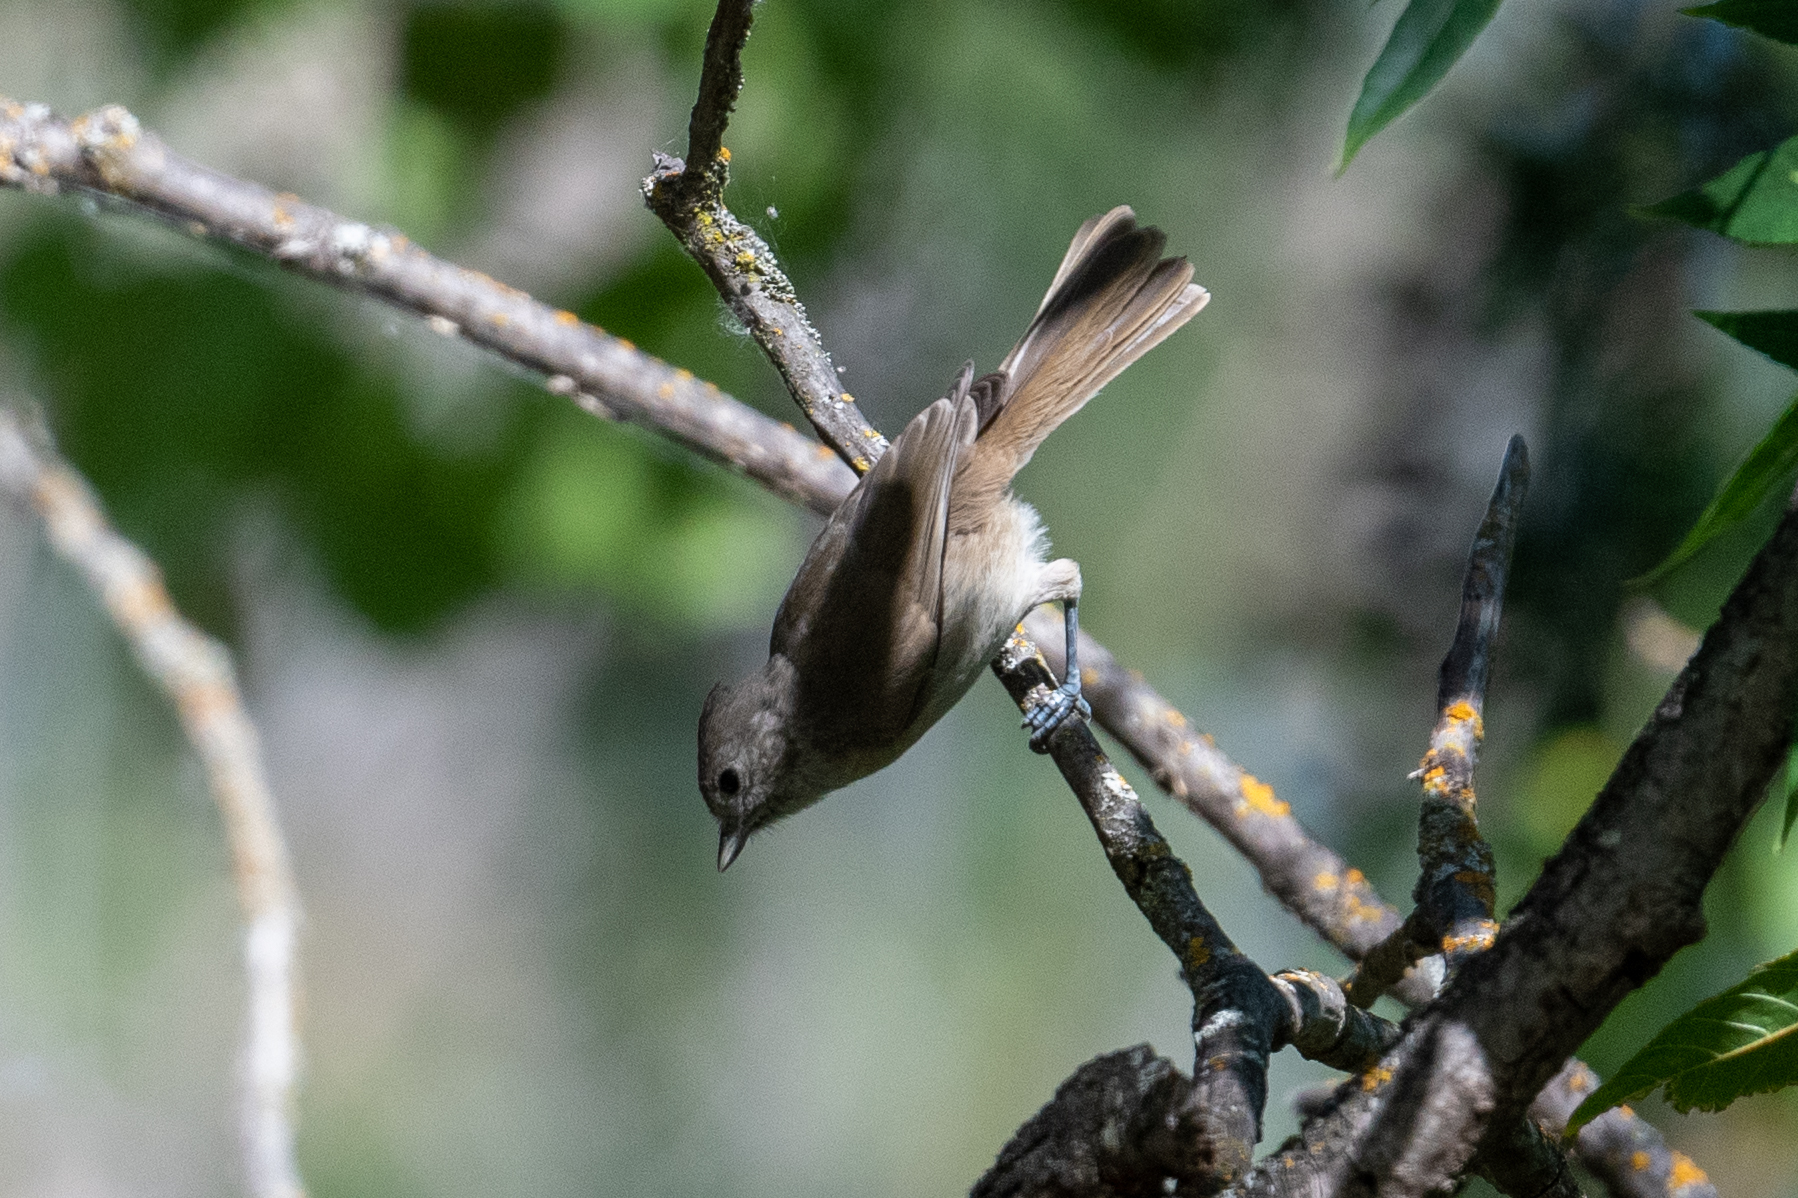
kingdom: Animalia
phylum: Chordata
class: Aves
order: Passeriformes
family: Paridae
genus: Baeolophus
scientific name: Baeolophus inornatus
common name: Oak titmouse
